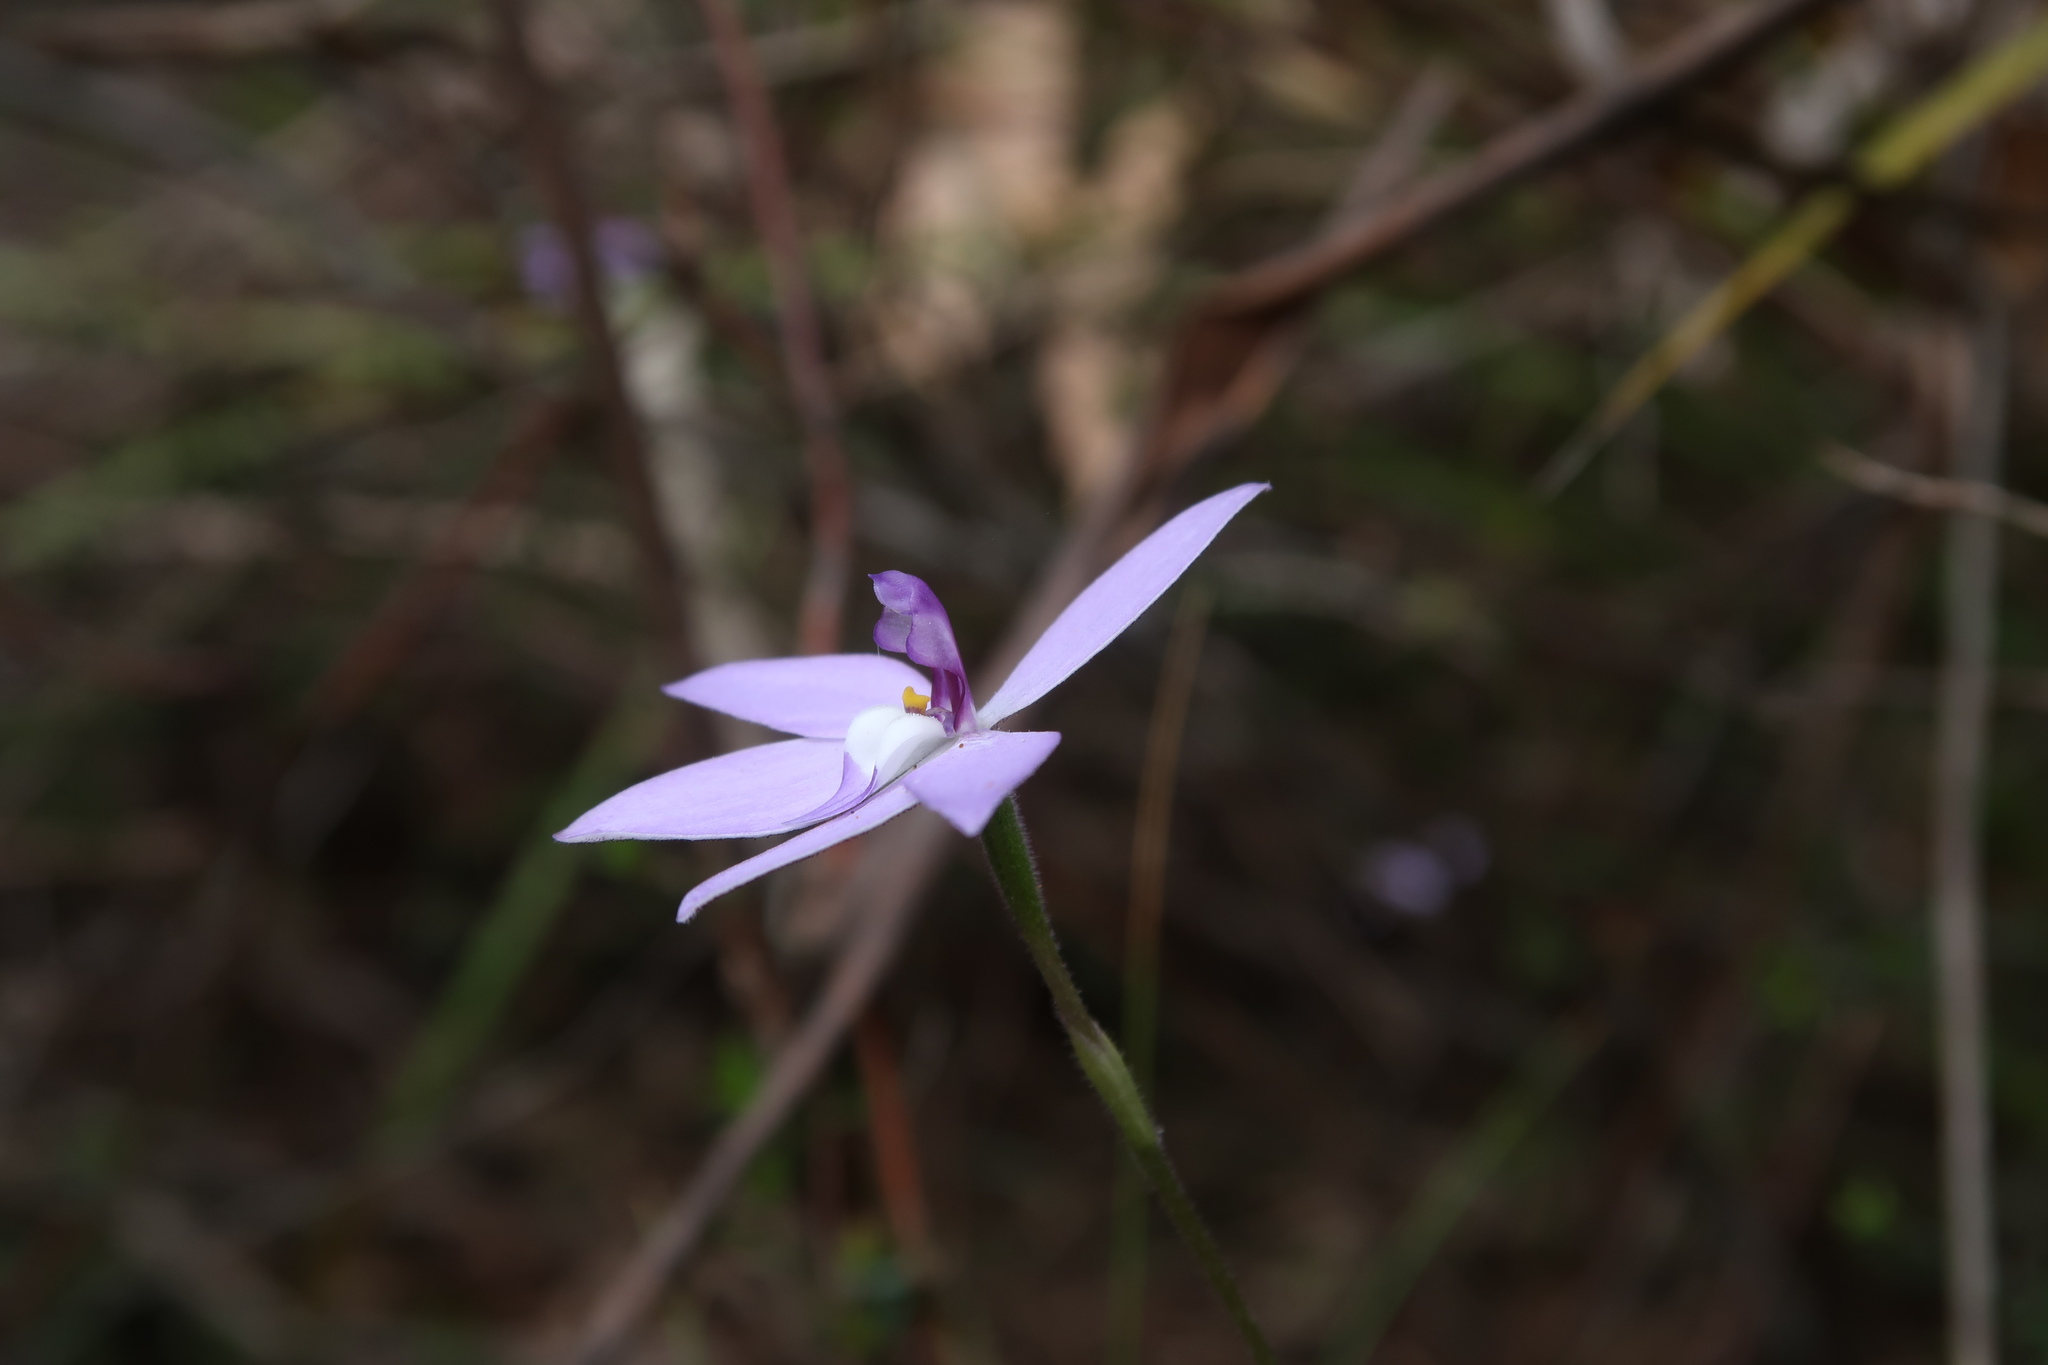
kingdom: Plantae
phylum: Tracheophyta
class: Liliopsida
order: Asparagales
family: Orchidaceae
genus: Caladenia
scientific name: Caladenia major
